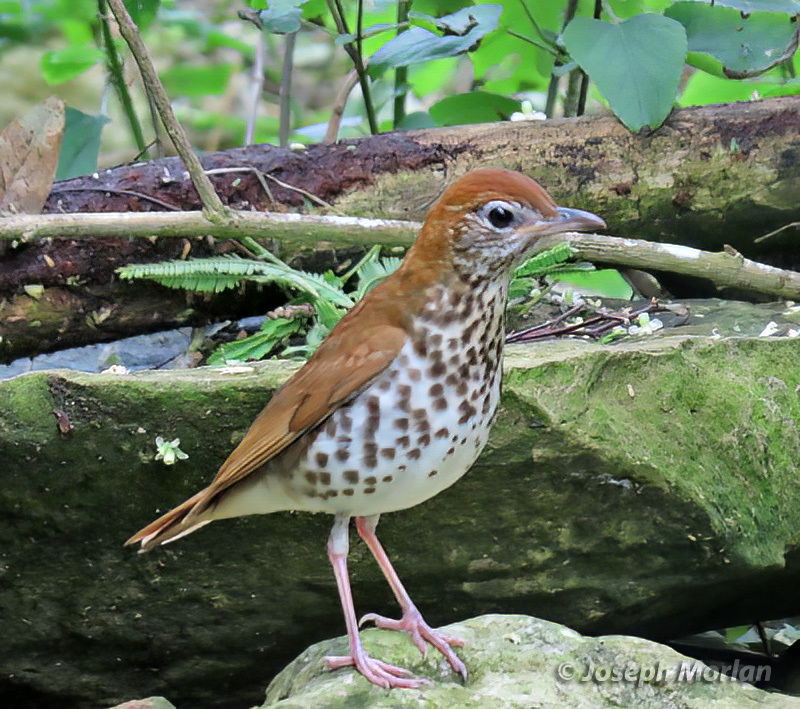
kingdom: Animalia
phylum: Chordata
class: Aves
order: Passeriformes
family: Turdidae
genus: Hylocichla
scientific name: Hylocichla mustelina
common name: Wood thrush
